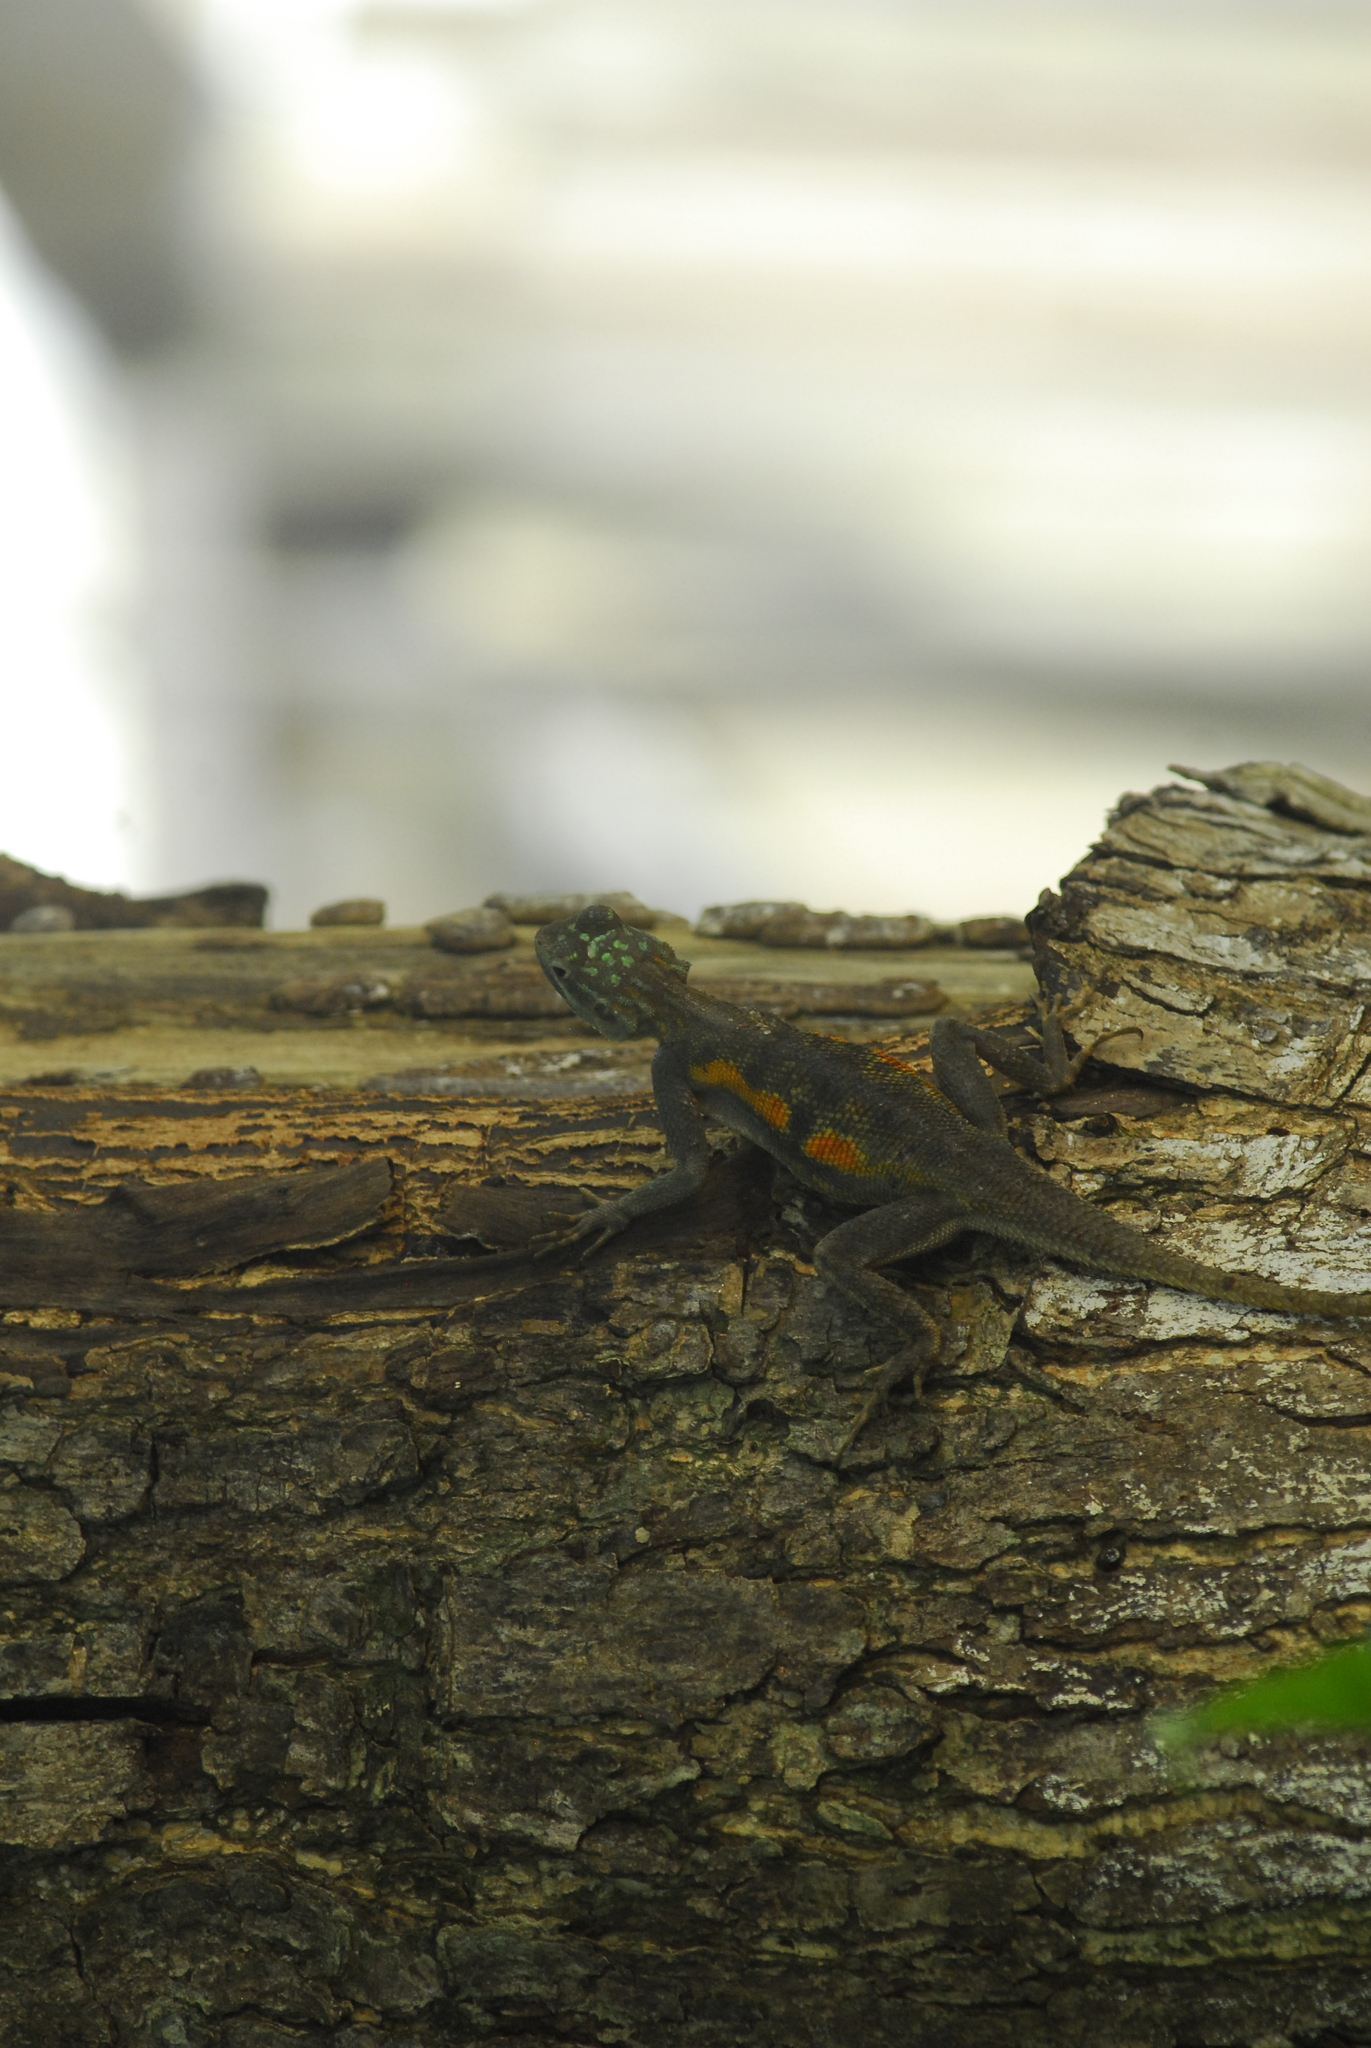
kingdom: Animalia
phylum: Chordata
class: Squamata
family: Agamidae
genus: Agama
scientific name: Agama agama
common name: Common agama
